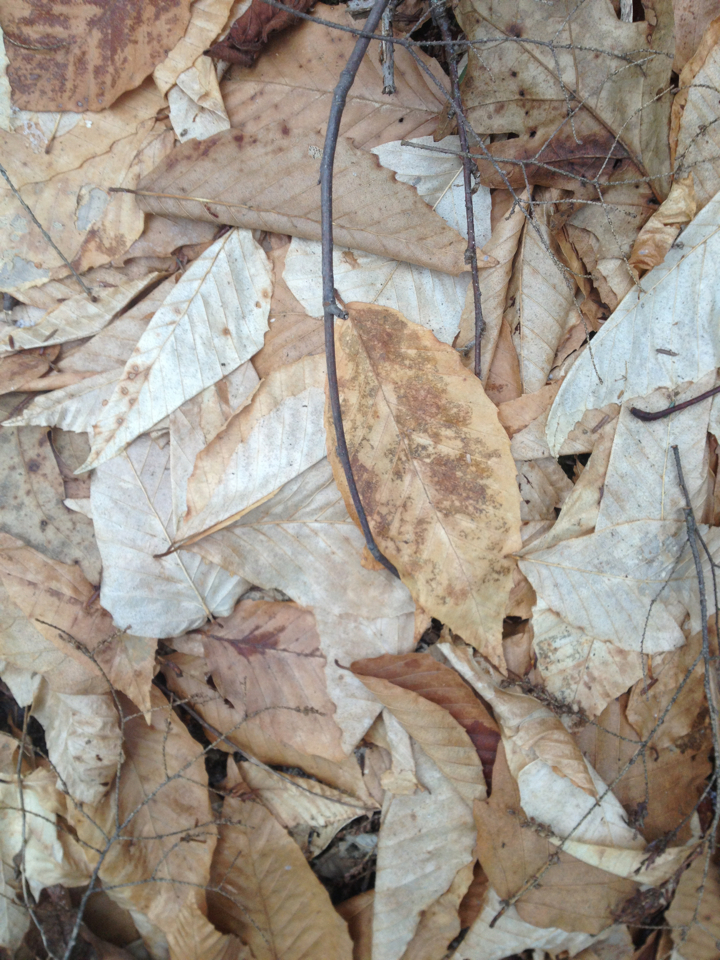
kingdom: Plantae
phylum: Tracheophyta
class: Magnoliopsida
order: Fagales
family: Fagaceae
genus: Fagus
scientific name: Fagus grandifolia
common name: American beech
